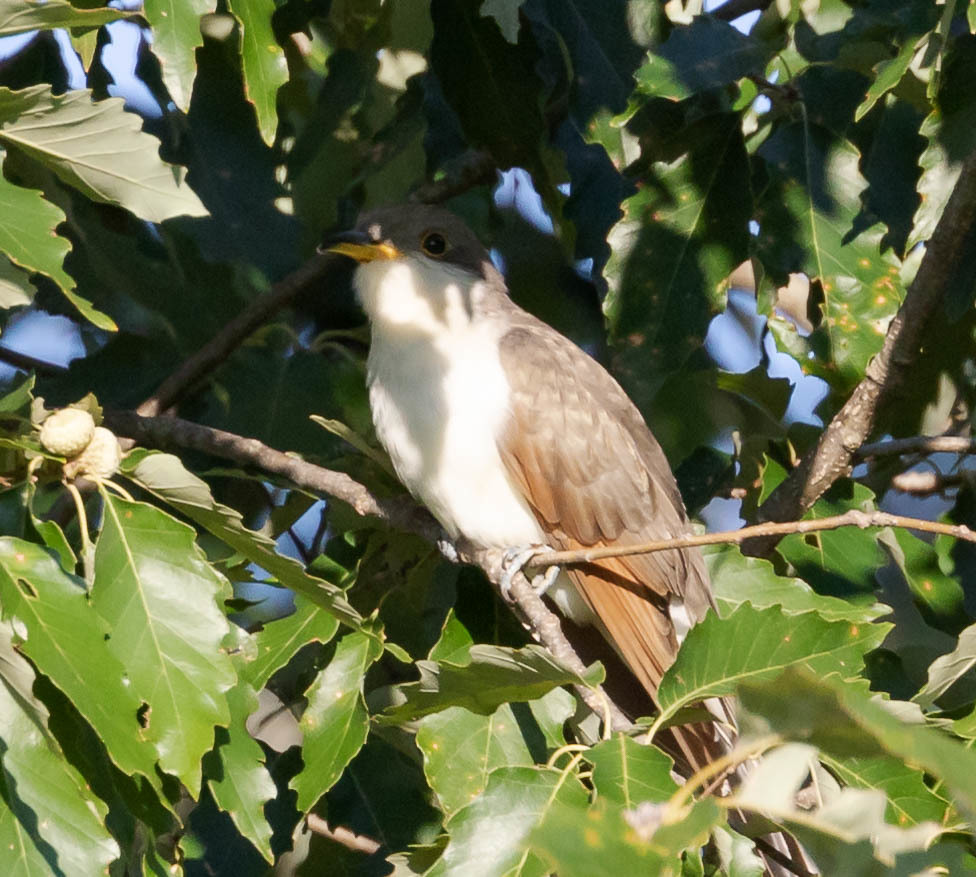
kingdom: Animalia
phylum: Chordata
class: Aves
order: Cuculiformes
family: Cuculidae
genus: Coccyzus
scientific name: Coccyzus americanus
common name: Yellow-billed cuckoo
